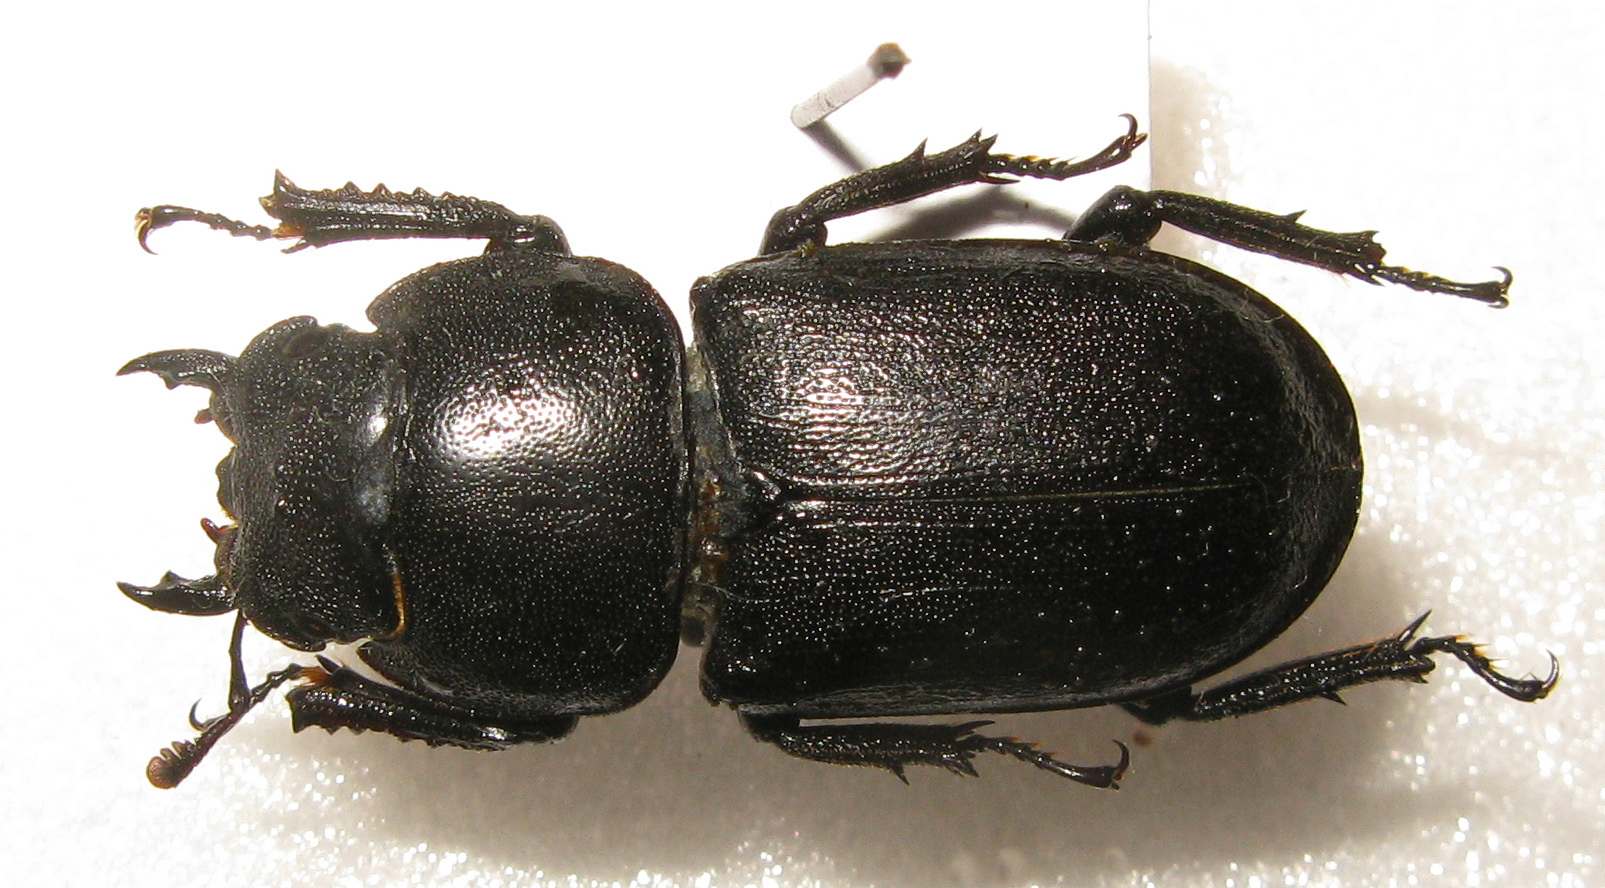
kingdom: Animalia
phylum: Arthropoda
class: Insecta
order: Coleoptera
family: Lucanidae
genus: Dorcus
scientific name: Dorcus parallelipipedus
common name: Lesser stag beetle
